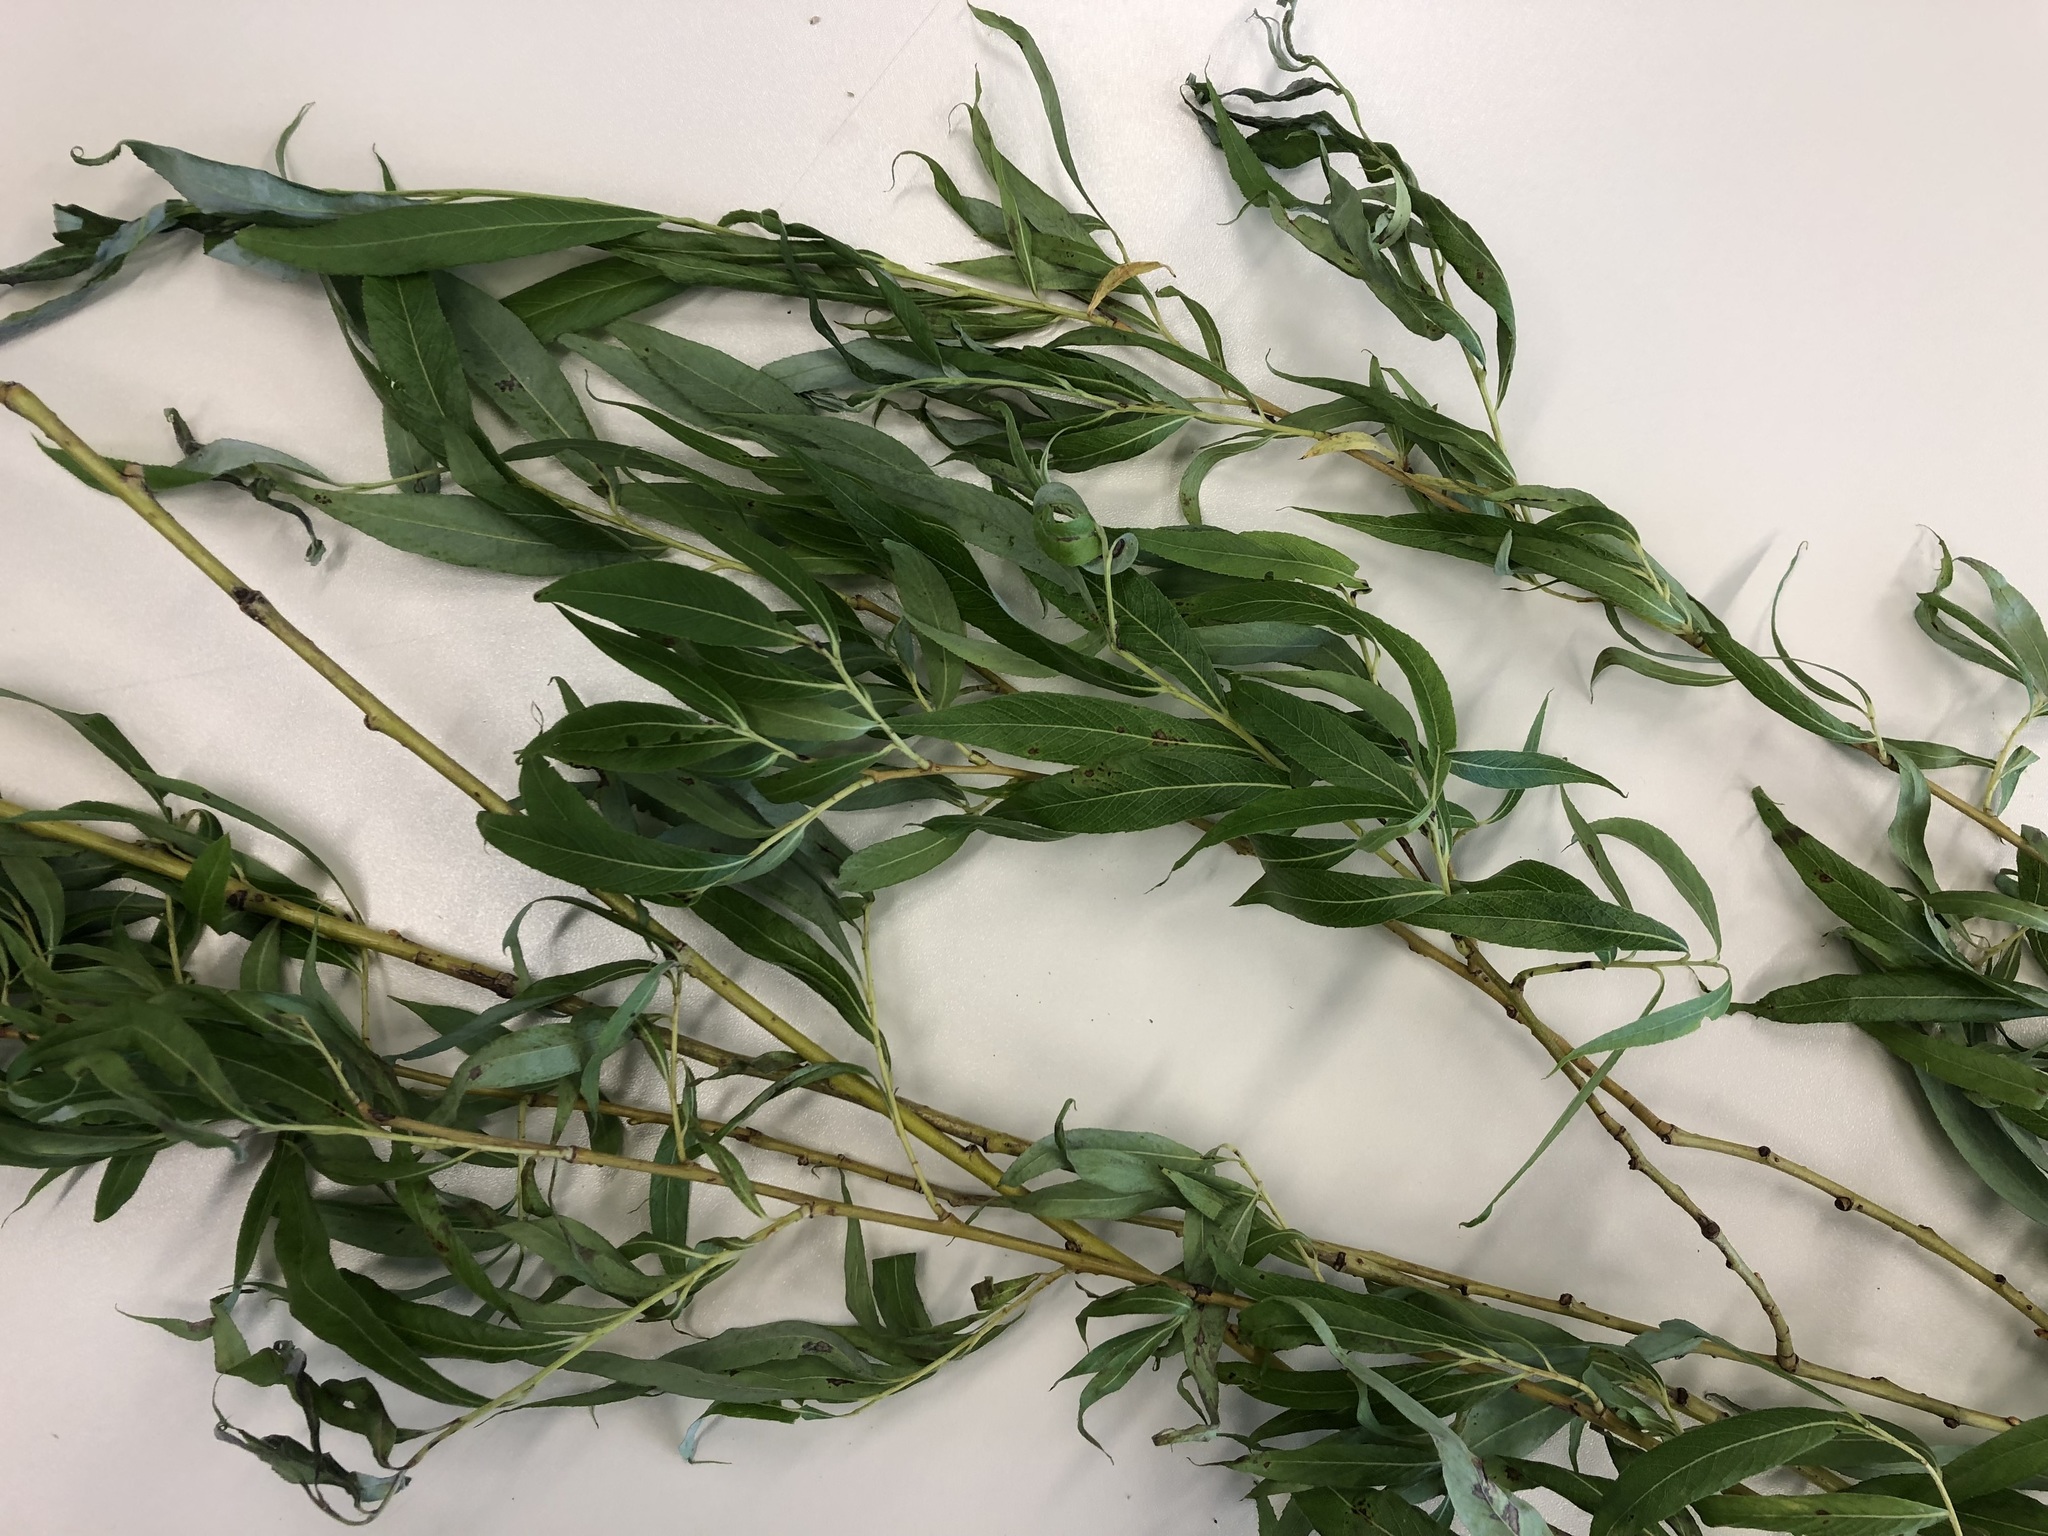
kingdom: Plantae
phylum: Tracheophyta
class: Magnoliopsida
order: Malpighiales
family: Salicaceae
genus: Salix
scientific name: Salix pendulina
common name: Wisconsin weeping willow
